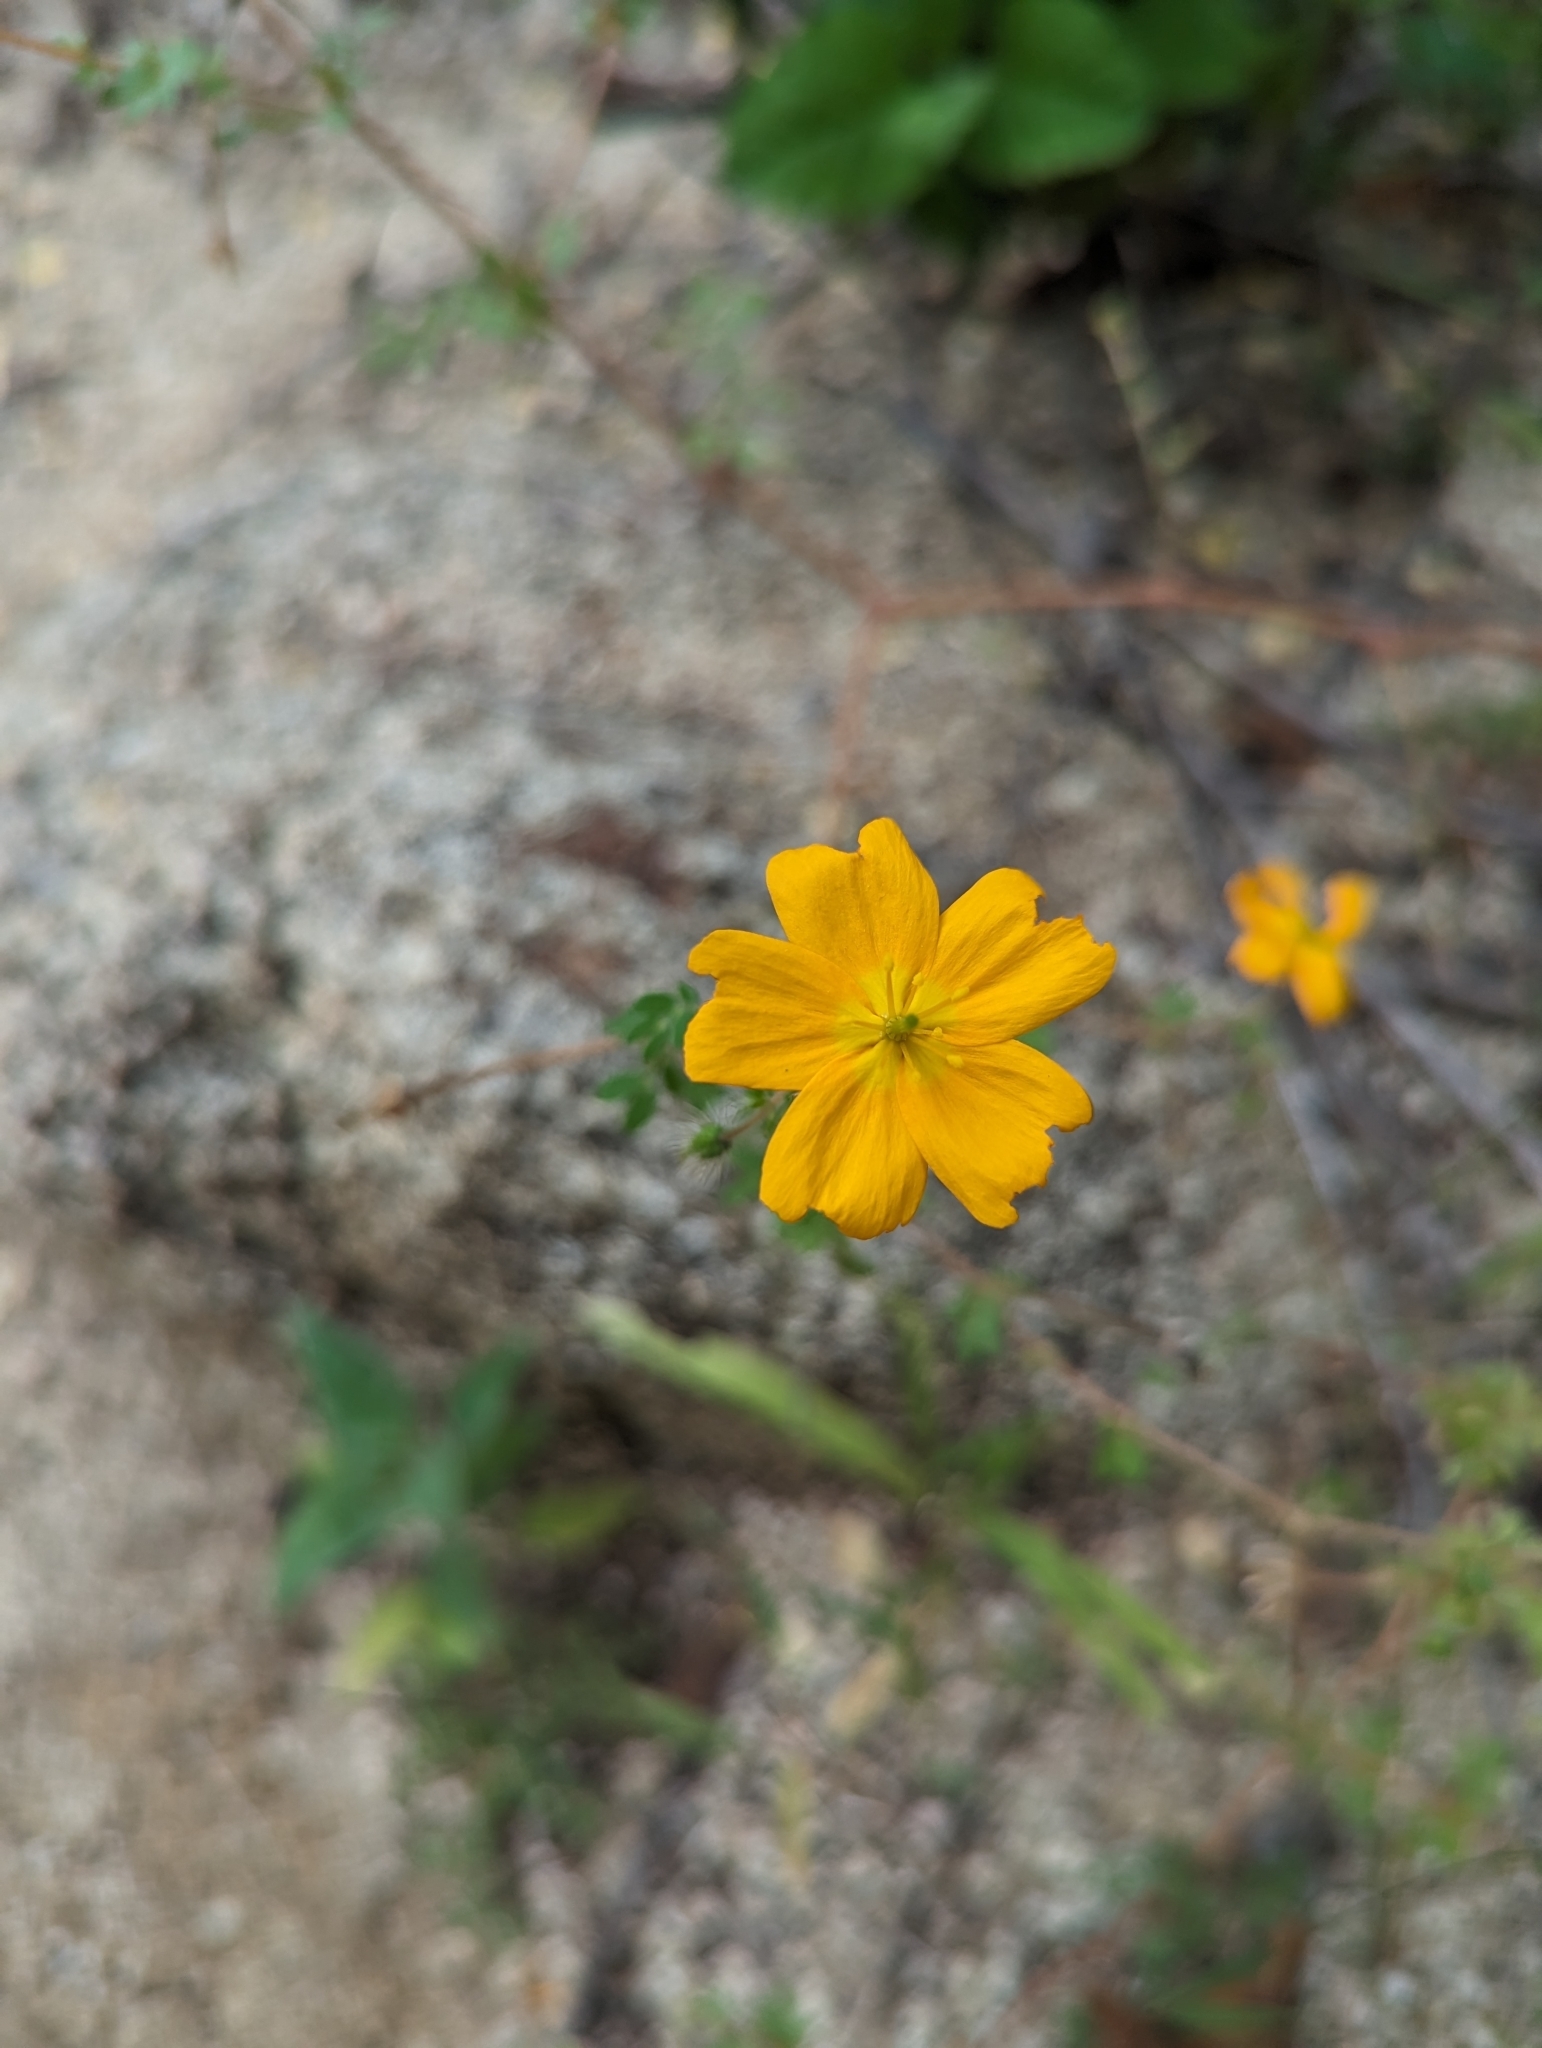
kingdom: Plantae
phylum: Tracheophyta
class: Magnoliopsida
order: Zygophyllales
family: Zygophyllaceae
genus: Kallstroemia
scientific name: Kallstroemia peninsularis
